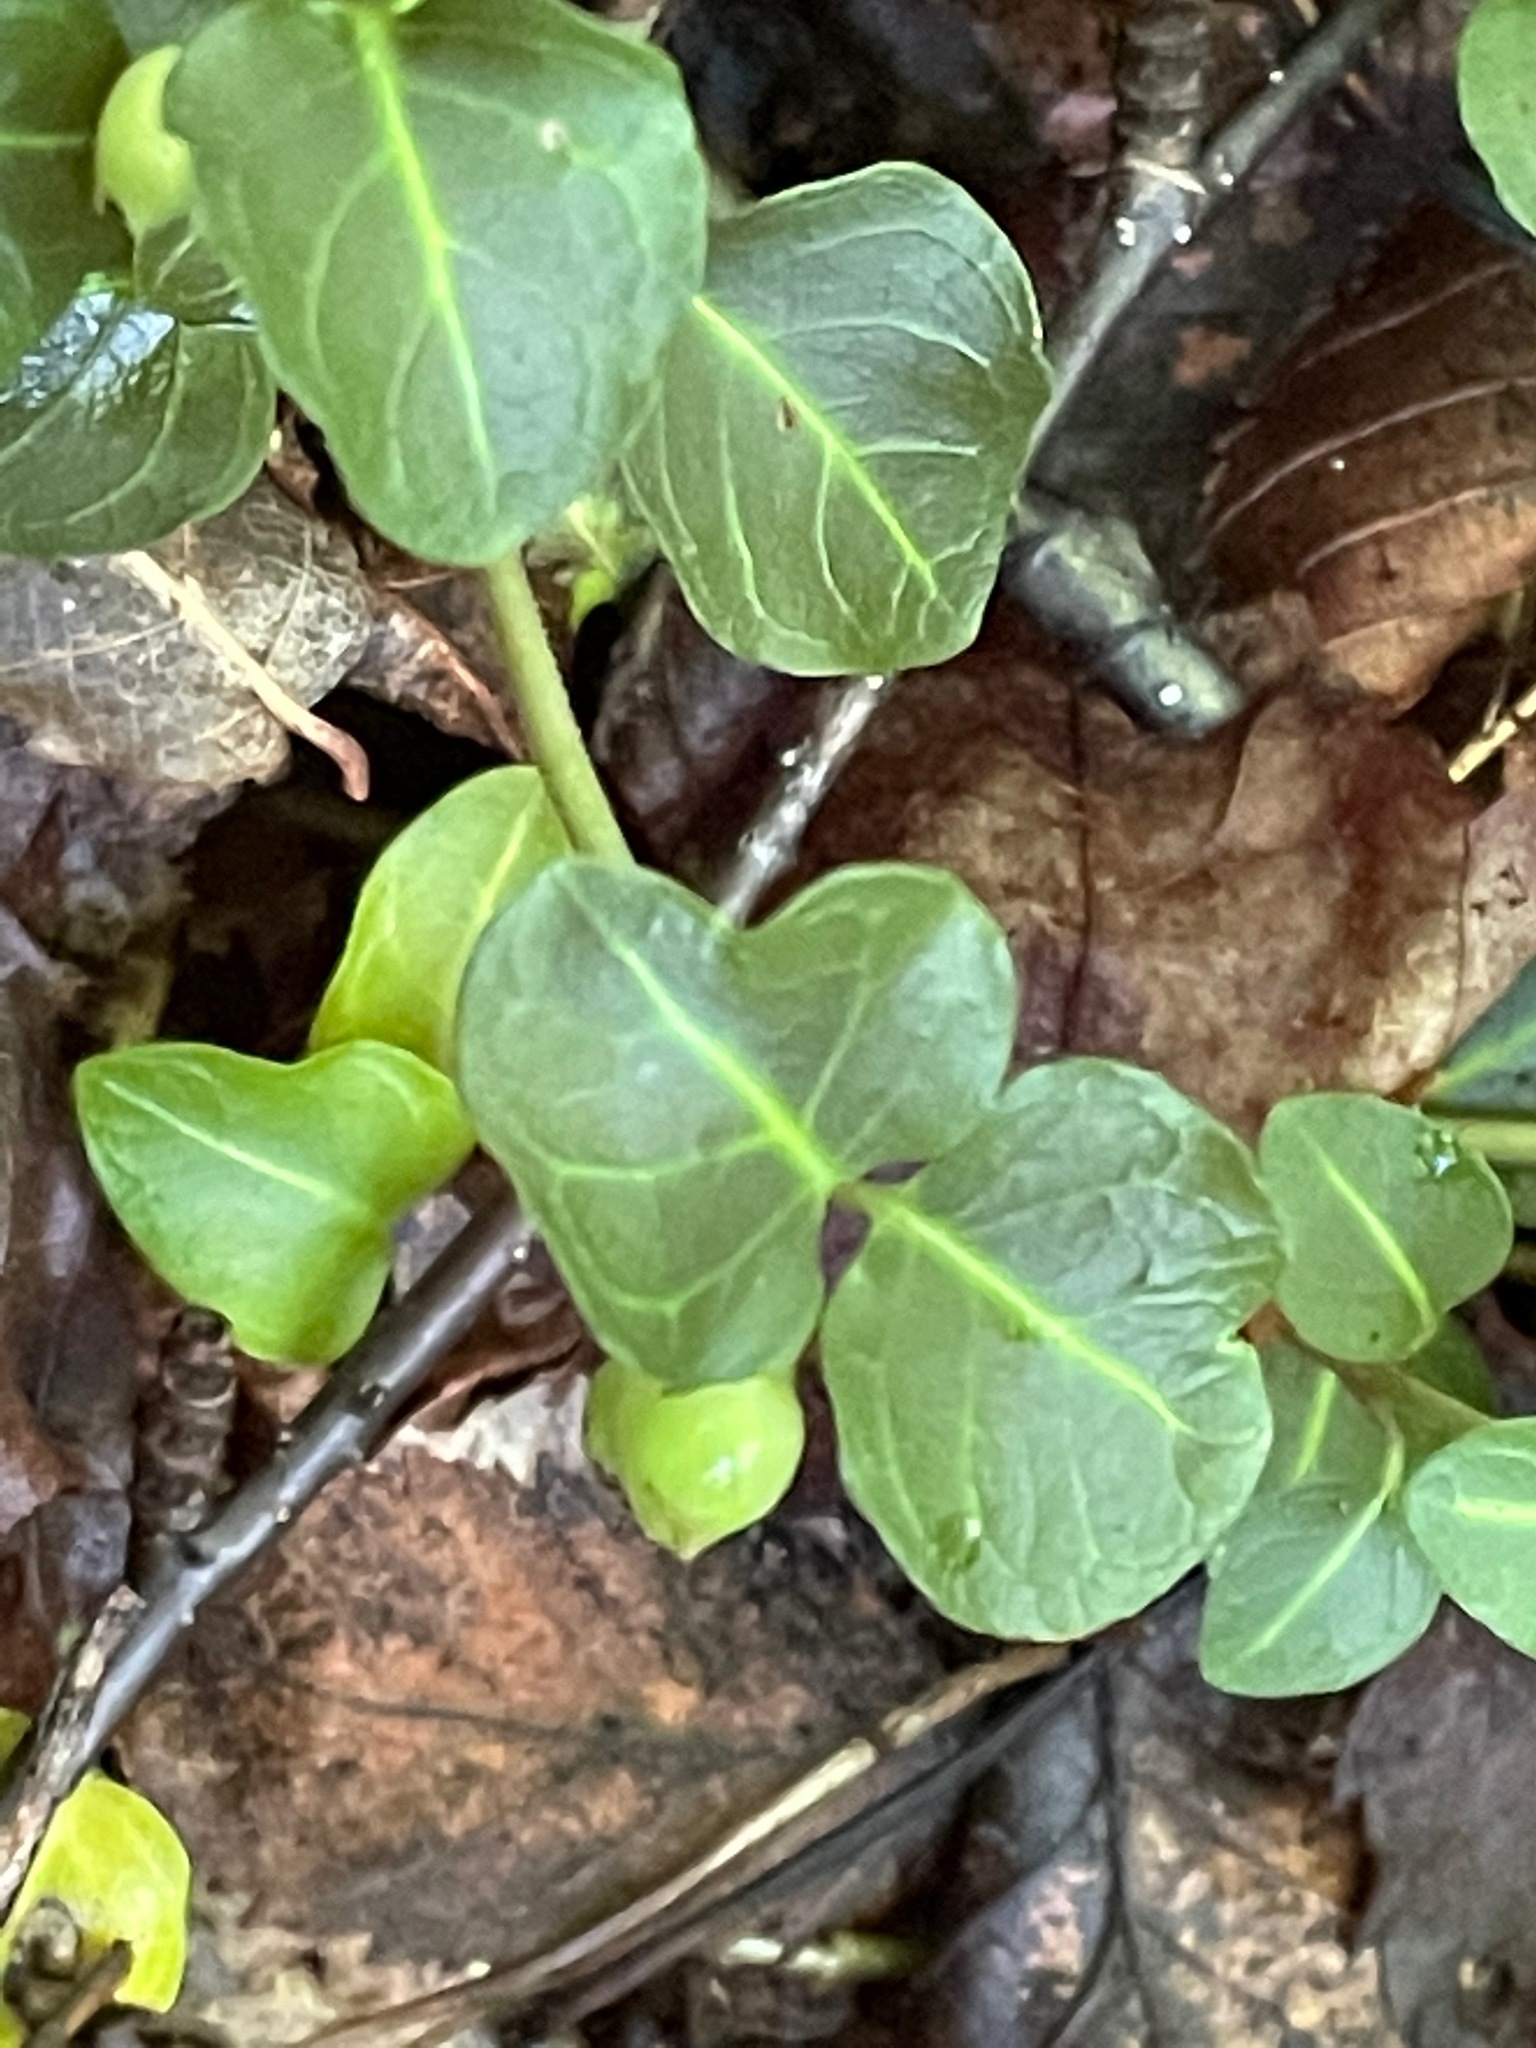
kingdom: Plantae
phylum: Tracheophyta
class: Magnoliopsida
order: Gentianales
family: Rubiaceae
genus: Mitchella
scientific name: Mitchella repens
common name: Partridge-berry
